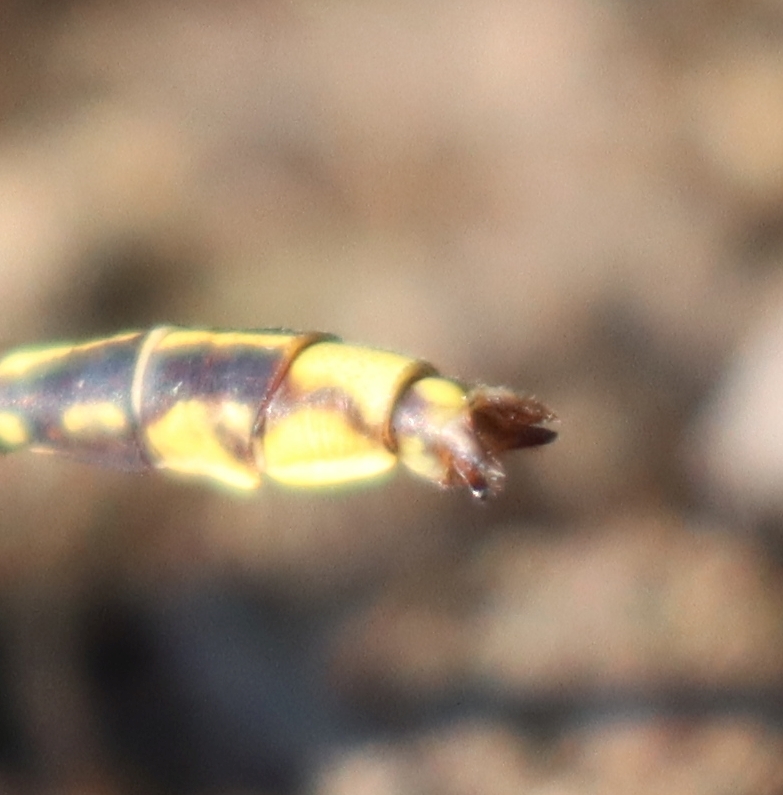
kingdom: Animalia
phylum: Arthropoda
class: Insecta
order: Odonata
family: Gomphidae
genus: Phanogomphus
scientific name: Phanogomphus exilis
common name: Lancet clubtail
